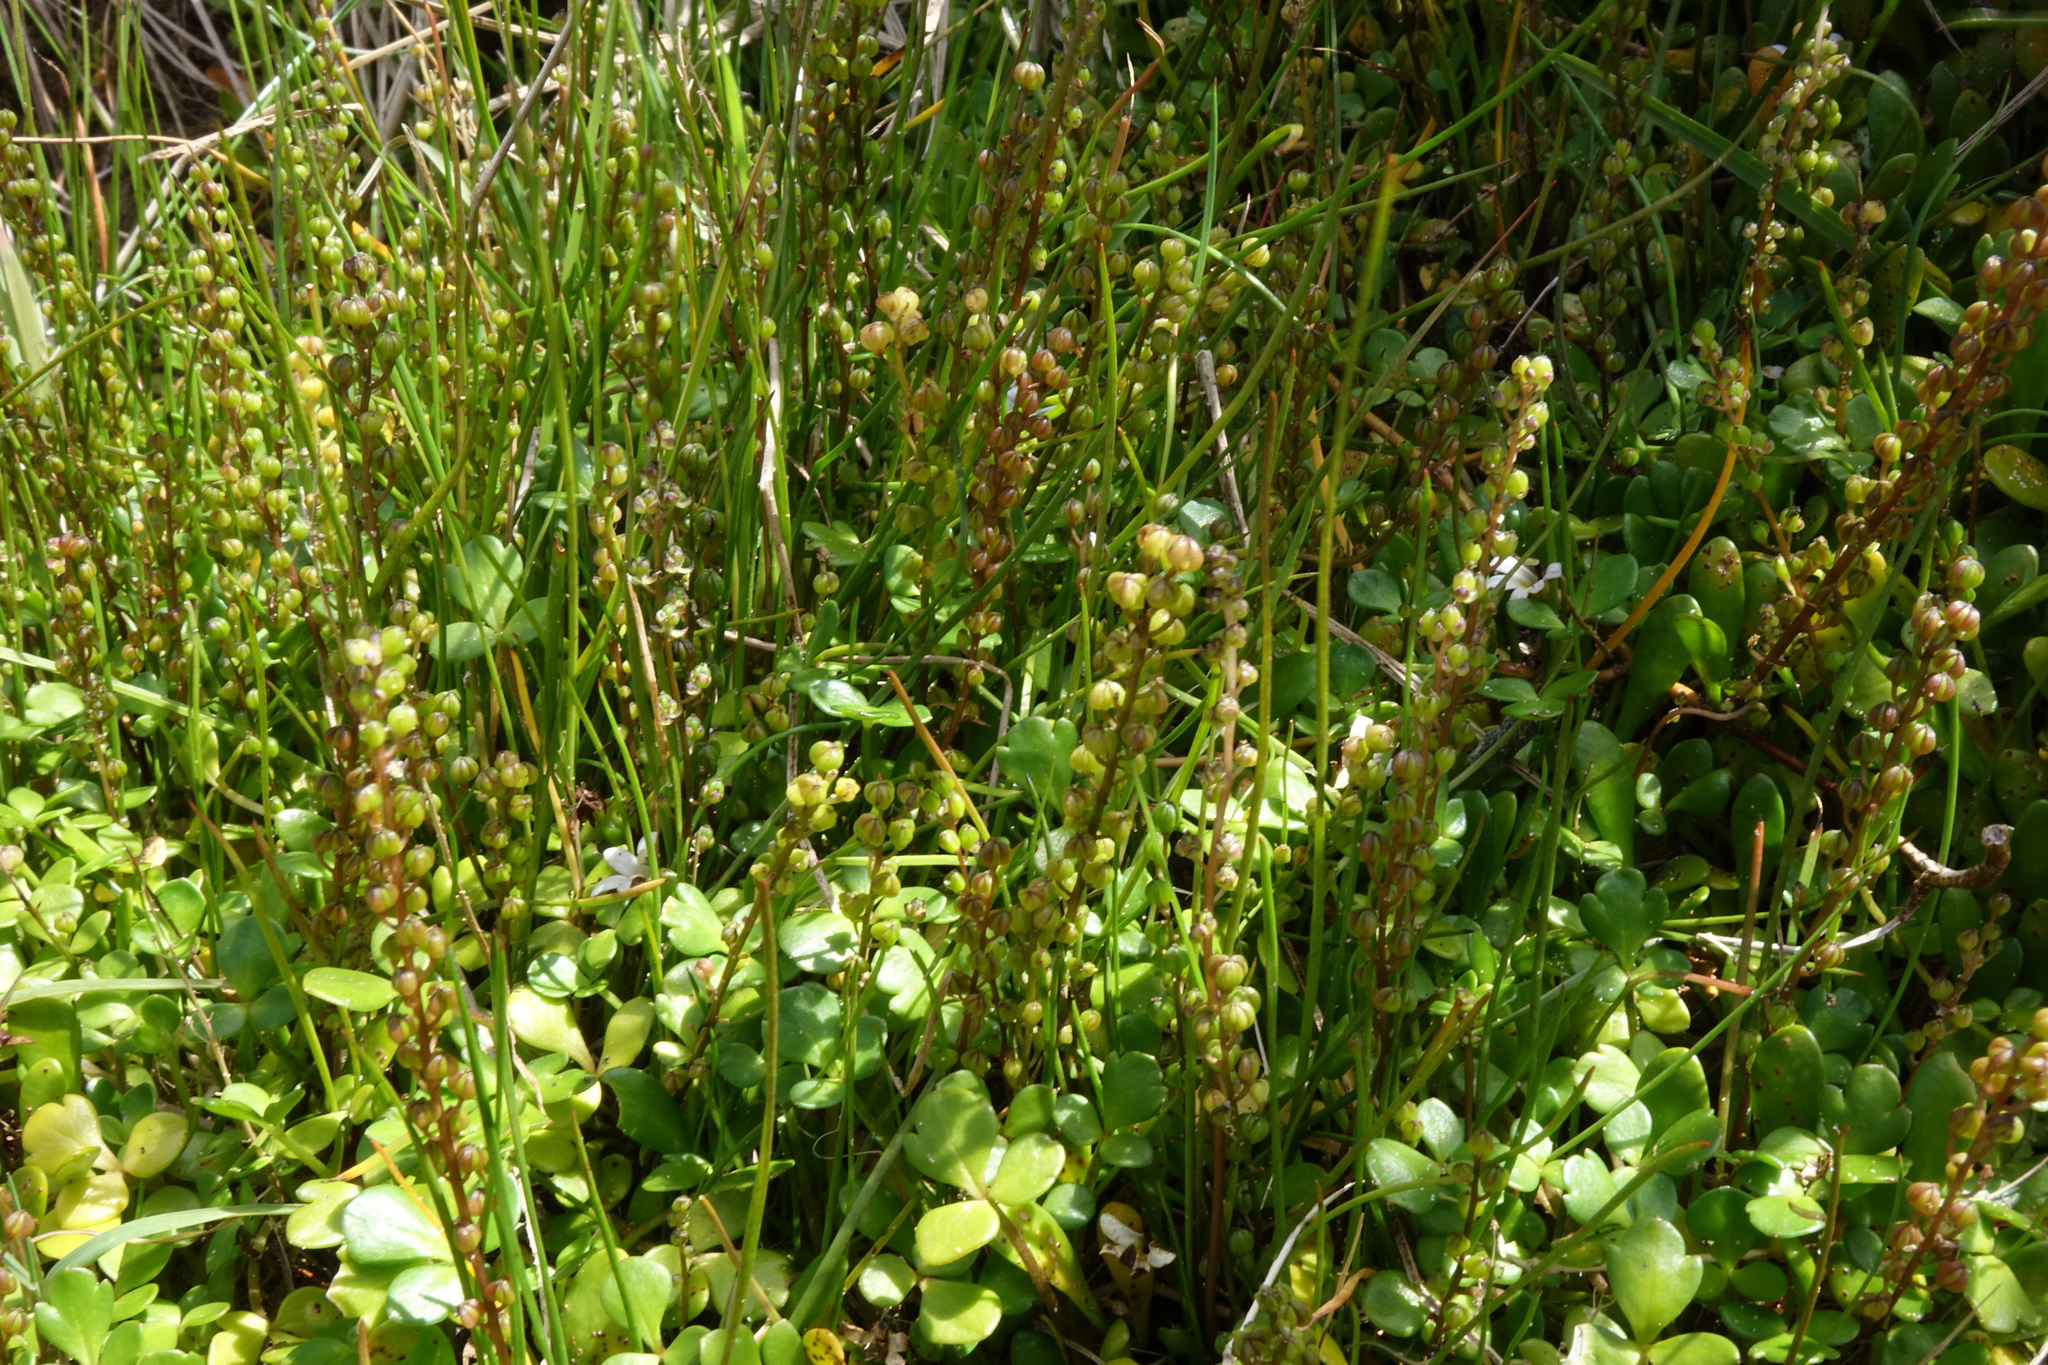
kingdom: Plantae
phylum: Tracheophyta
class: Liliopsida
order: Alismatales
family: Juncaginaceae
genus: Triglochin
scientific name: Triglochin striata
